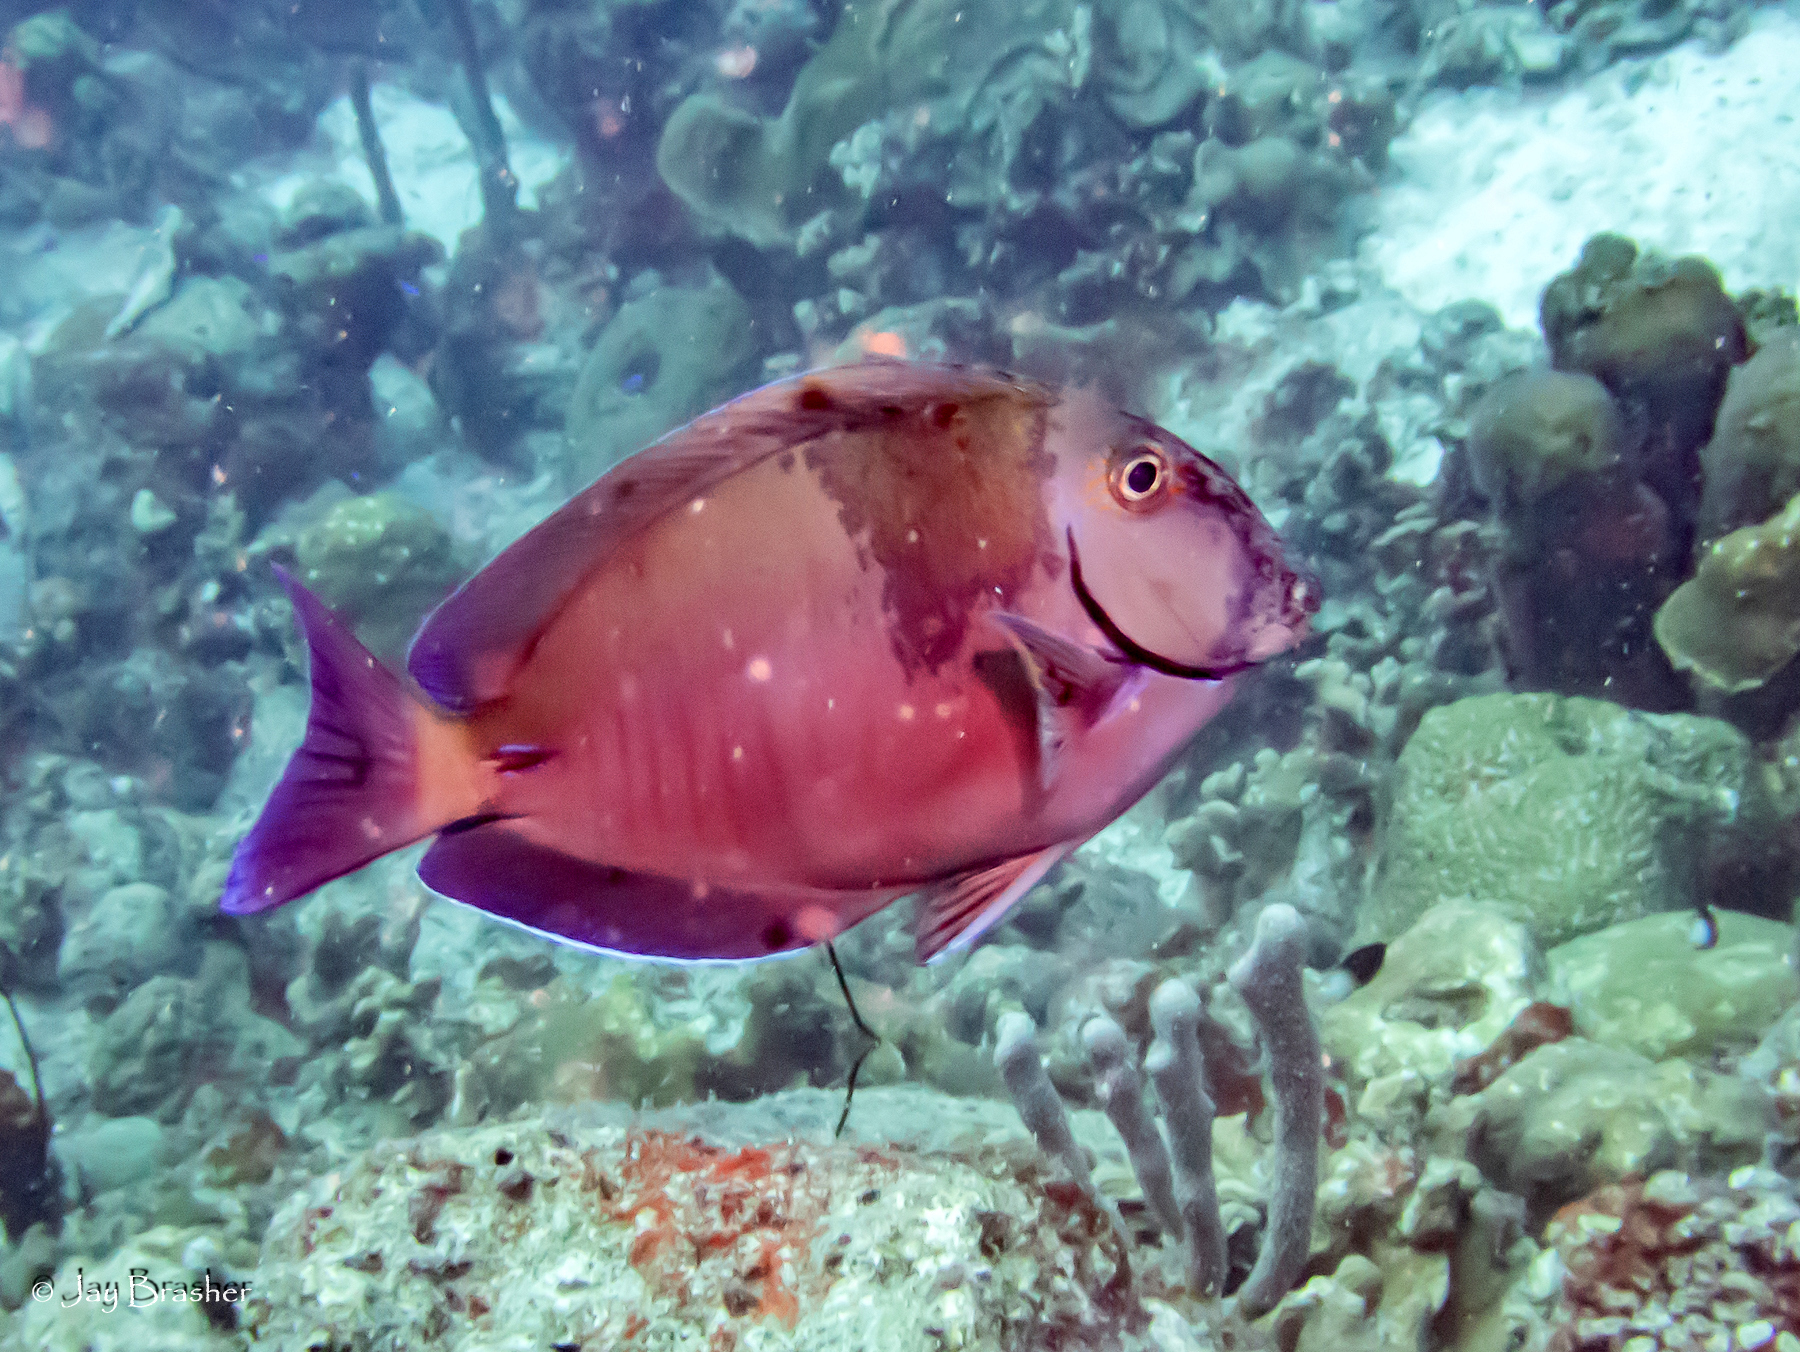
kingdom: Animalia
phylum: Chordata
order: Perciformes
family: Acanthuridae
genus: Acanthurus
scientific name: Acanthurus chirurgus
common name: Doctorfish
